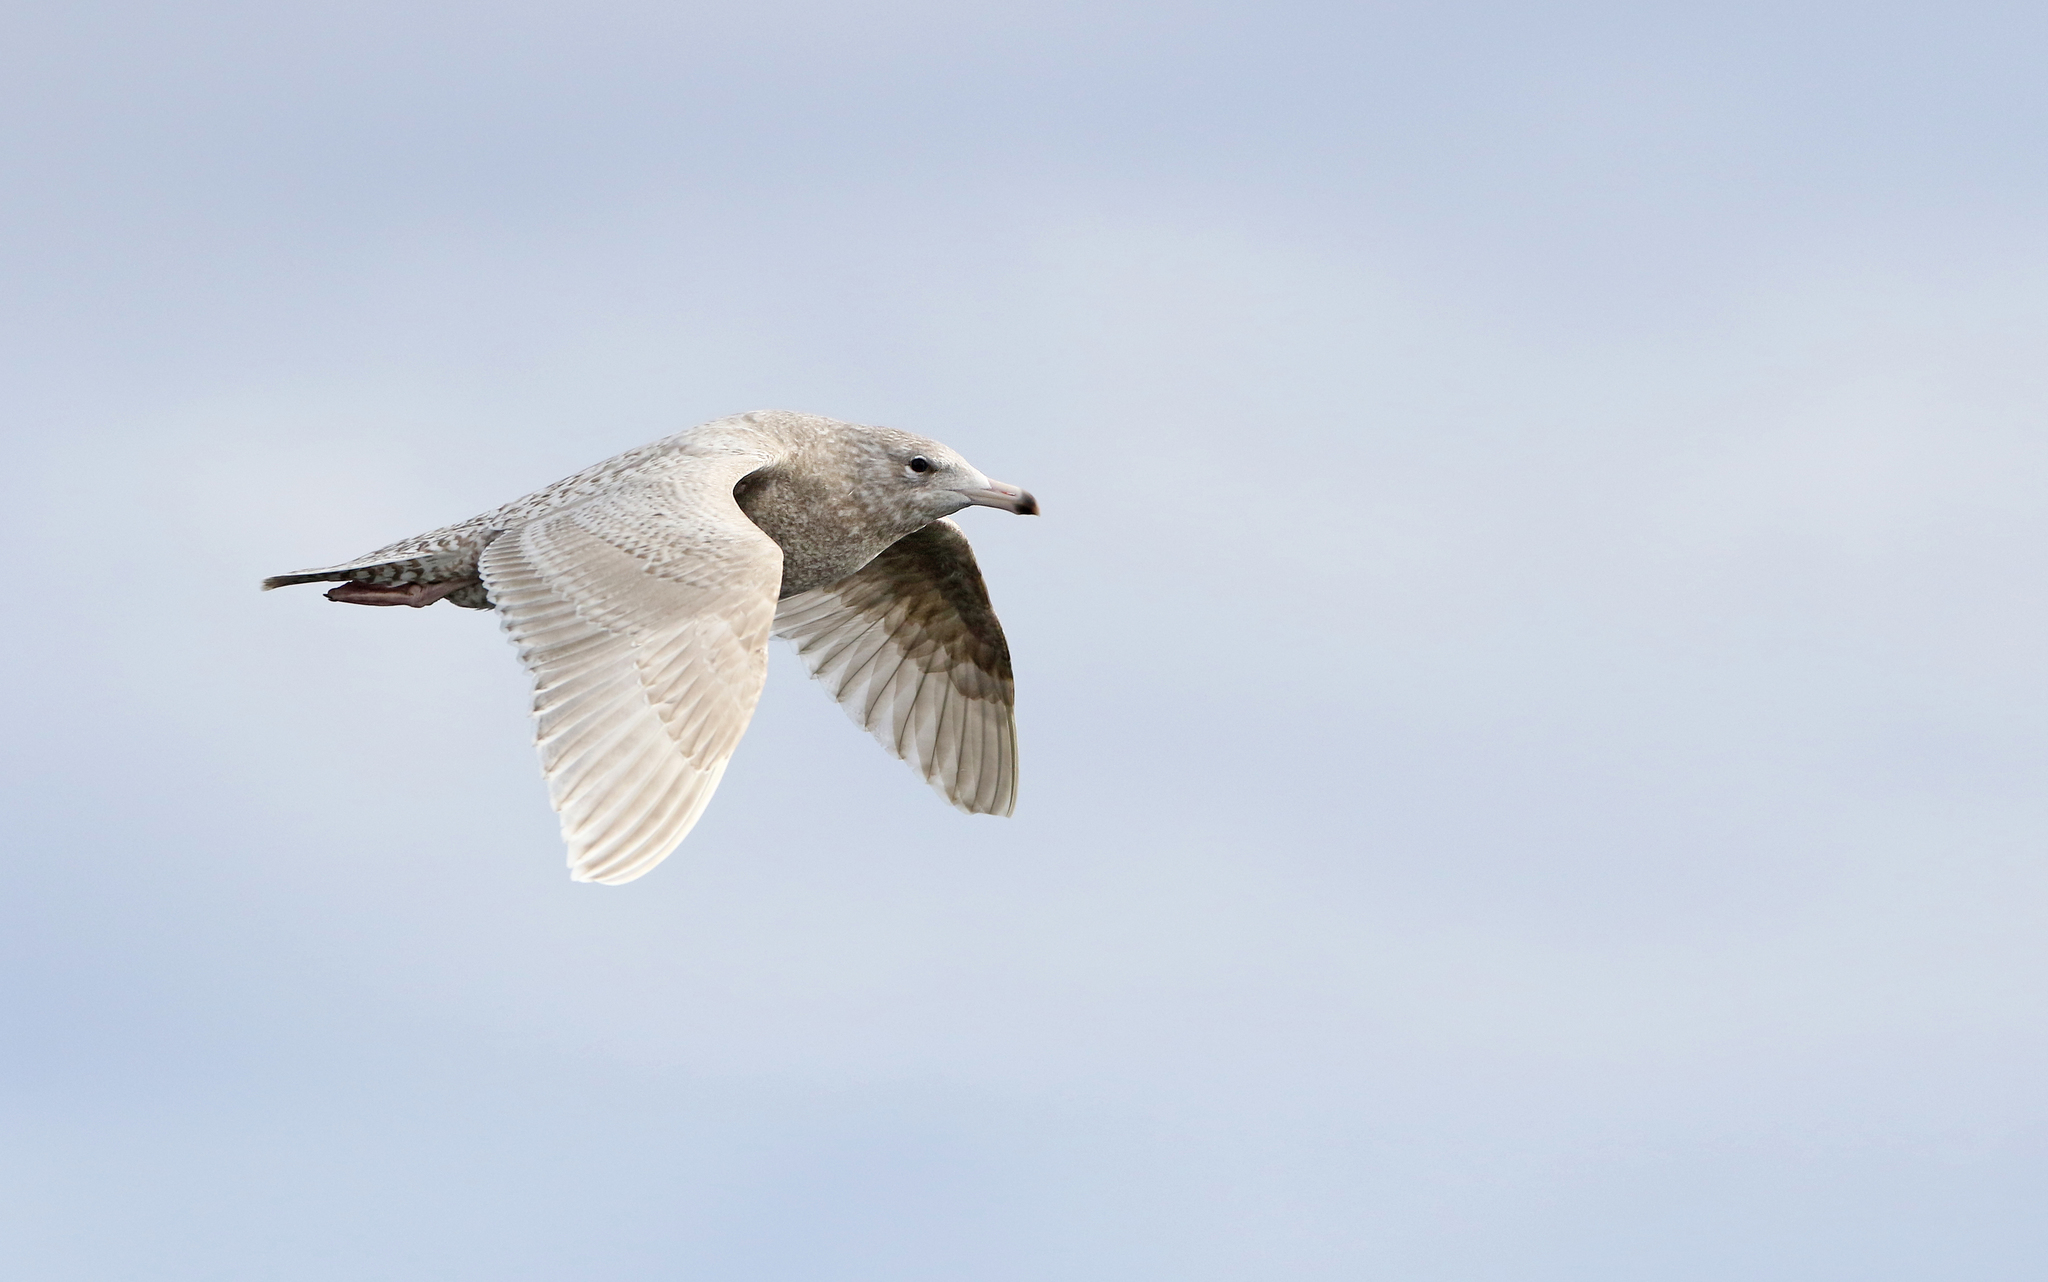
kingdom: Animalia
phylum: Chordata
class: Aves
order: Charadriiformes
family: Laridae
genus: Larus
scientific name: Larus hyperboreus
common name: Glaucous gull
